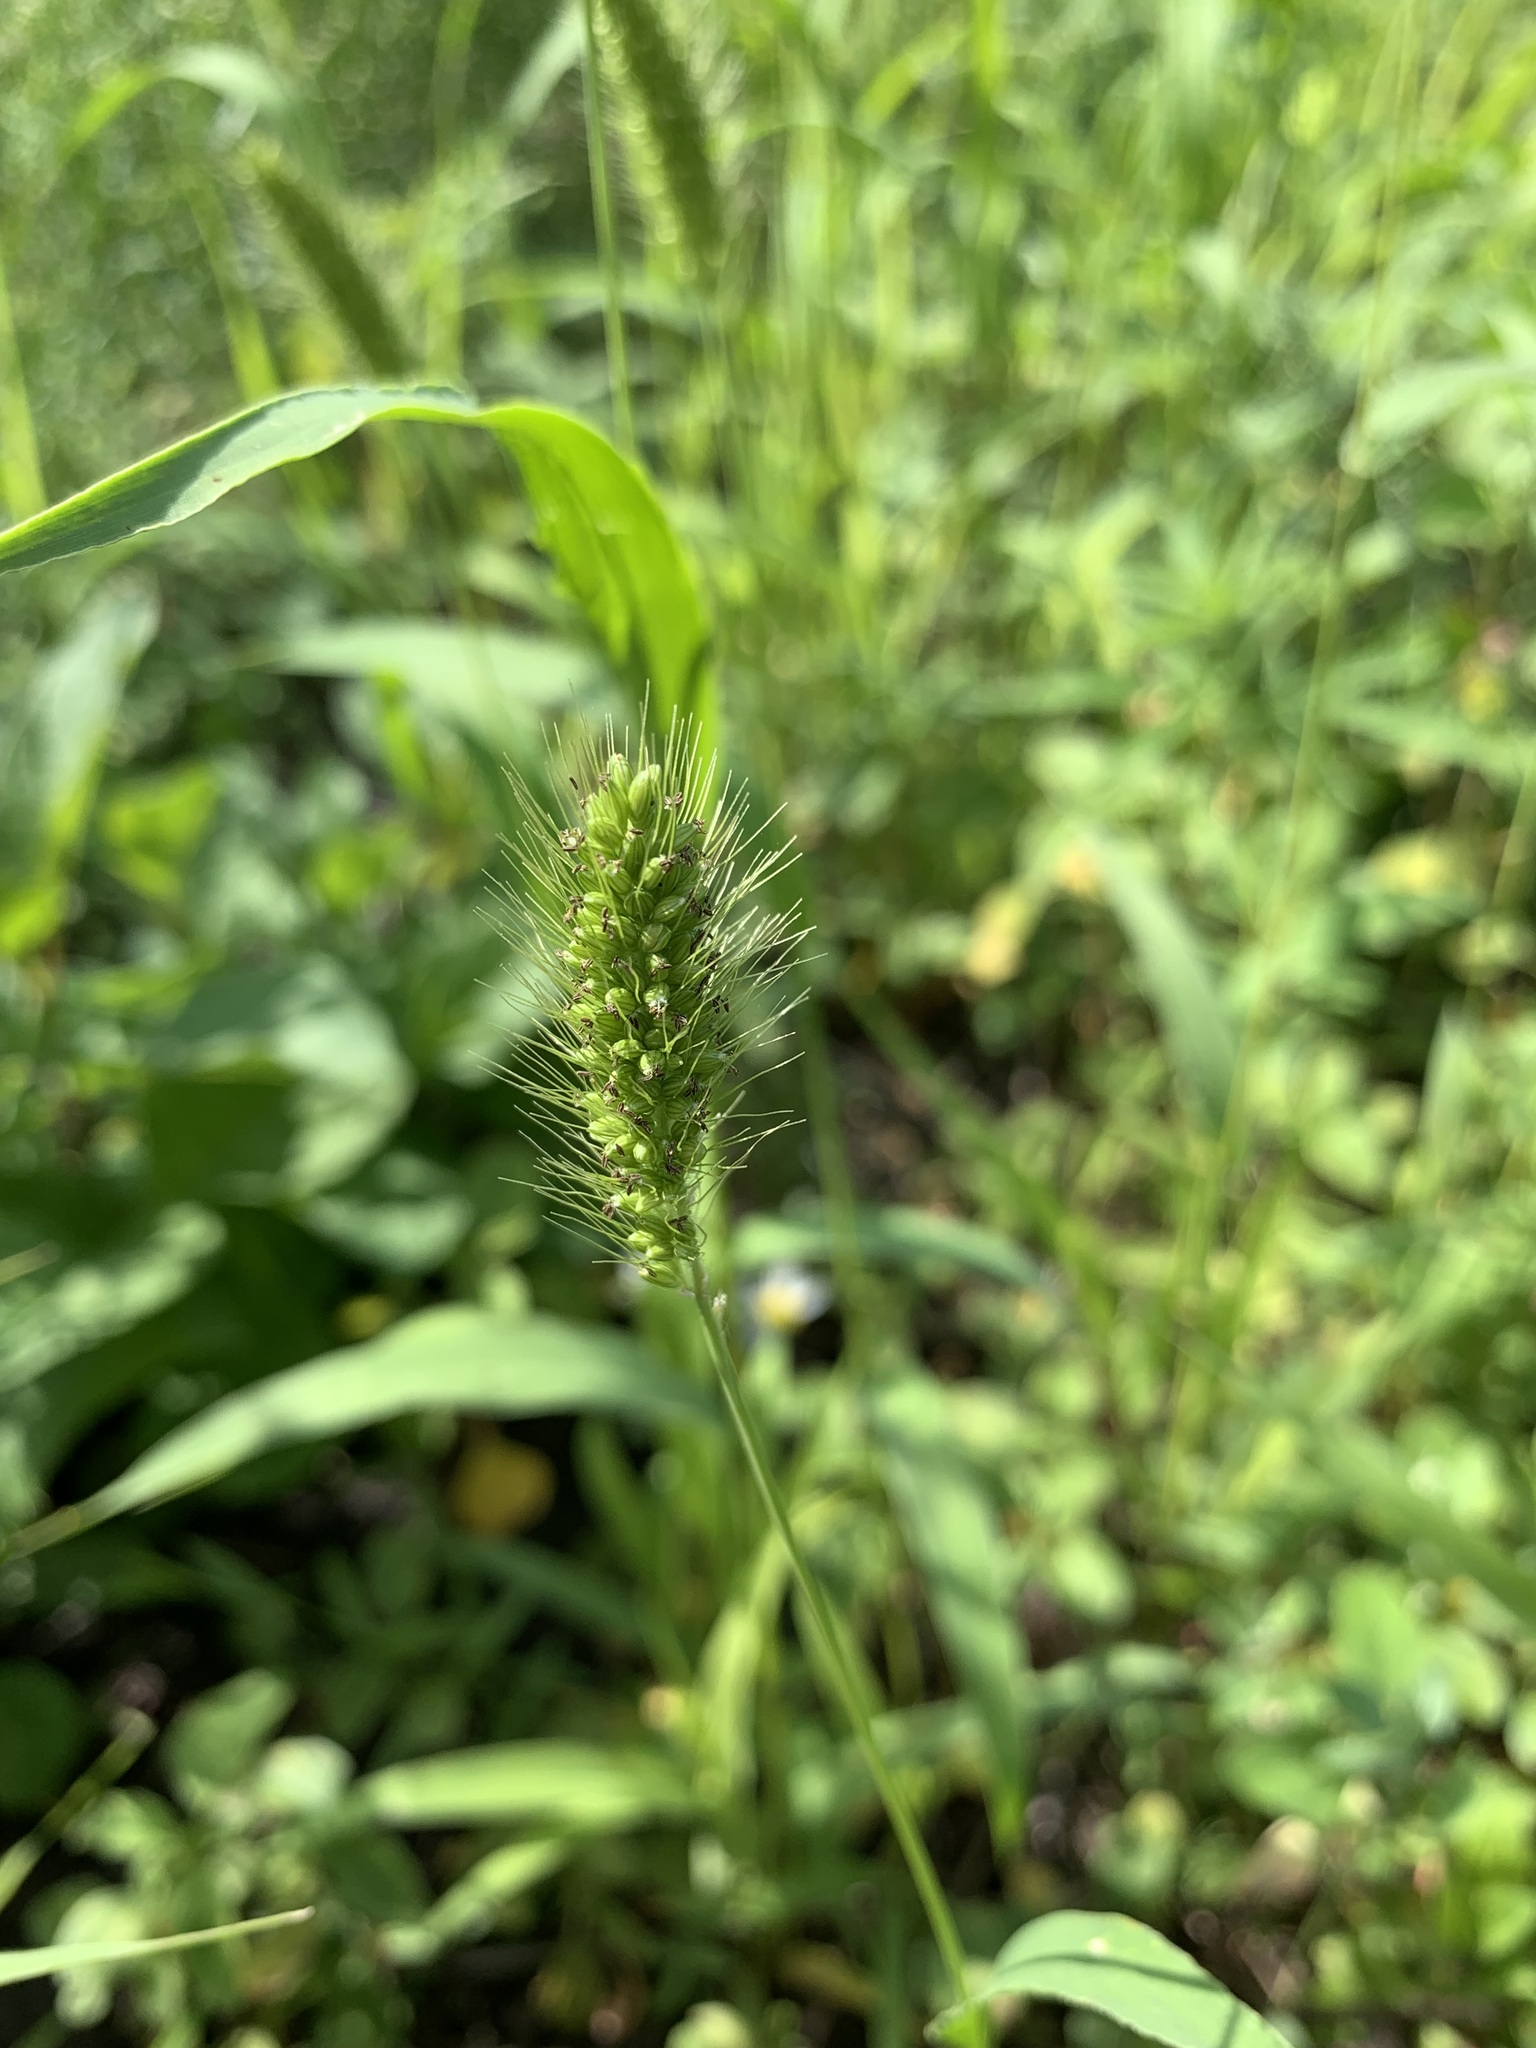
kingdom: Plantae
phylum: Tracheophyta
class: Liliopsida
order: Poales
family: Poaceae
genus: Setaria
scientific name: Setaria viridis
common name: Green bristlegrass
